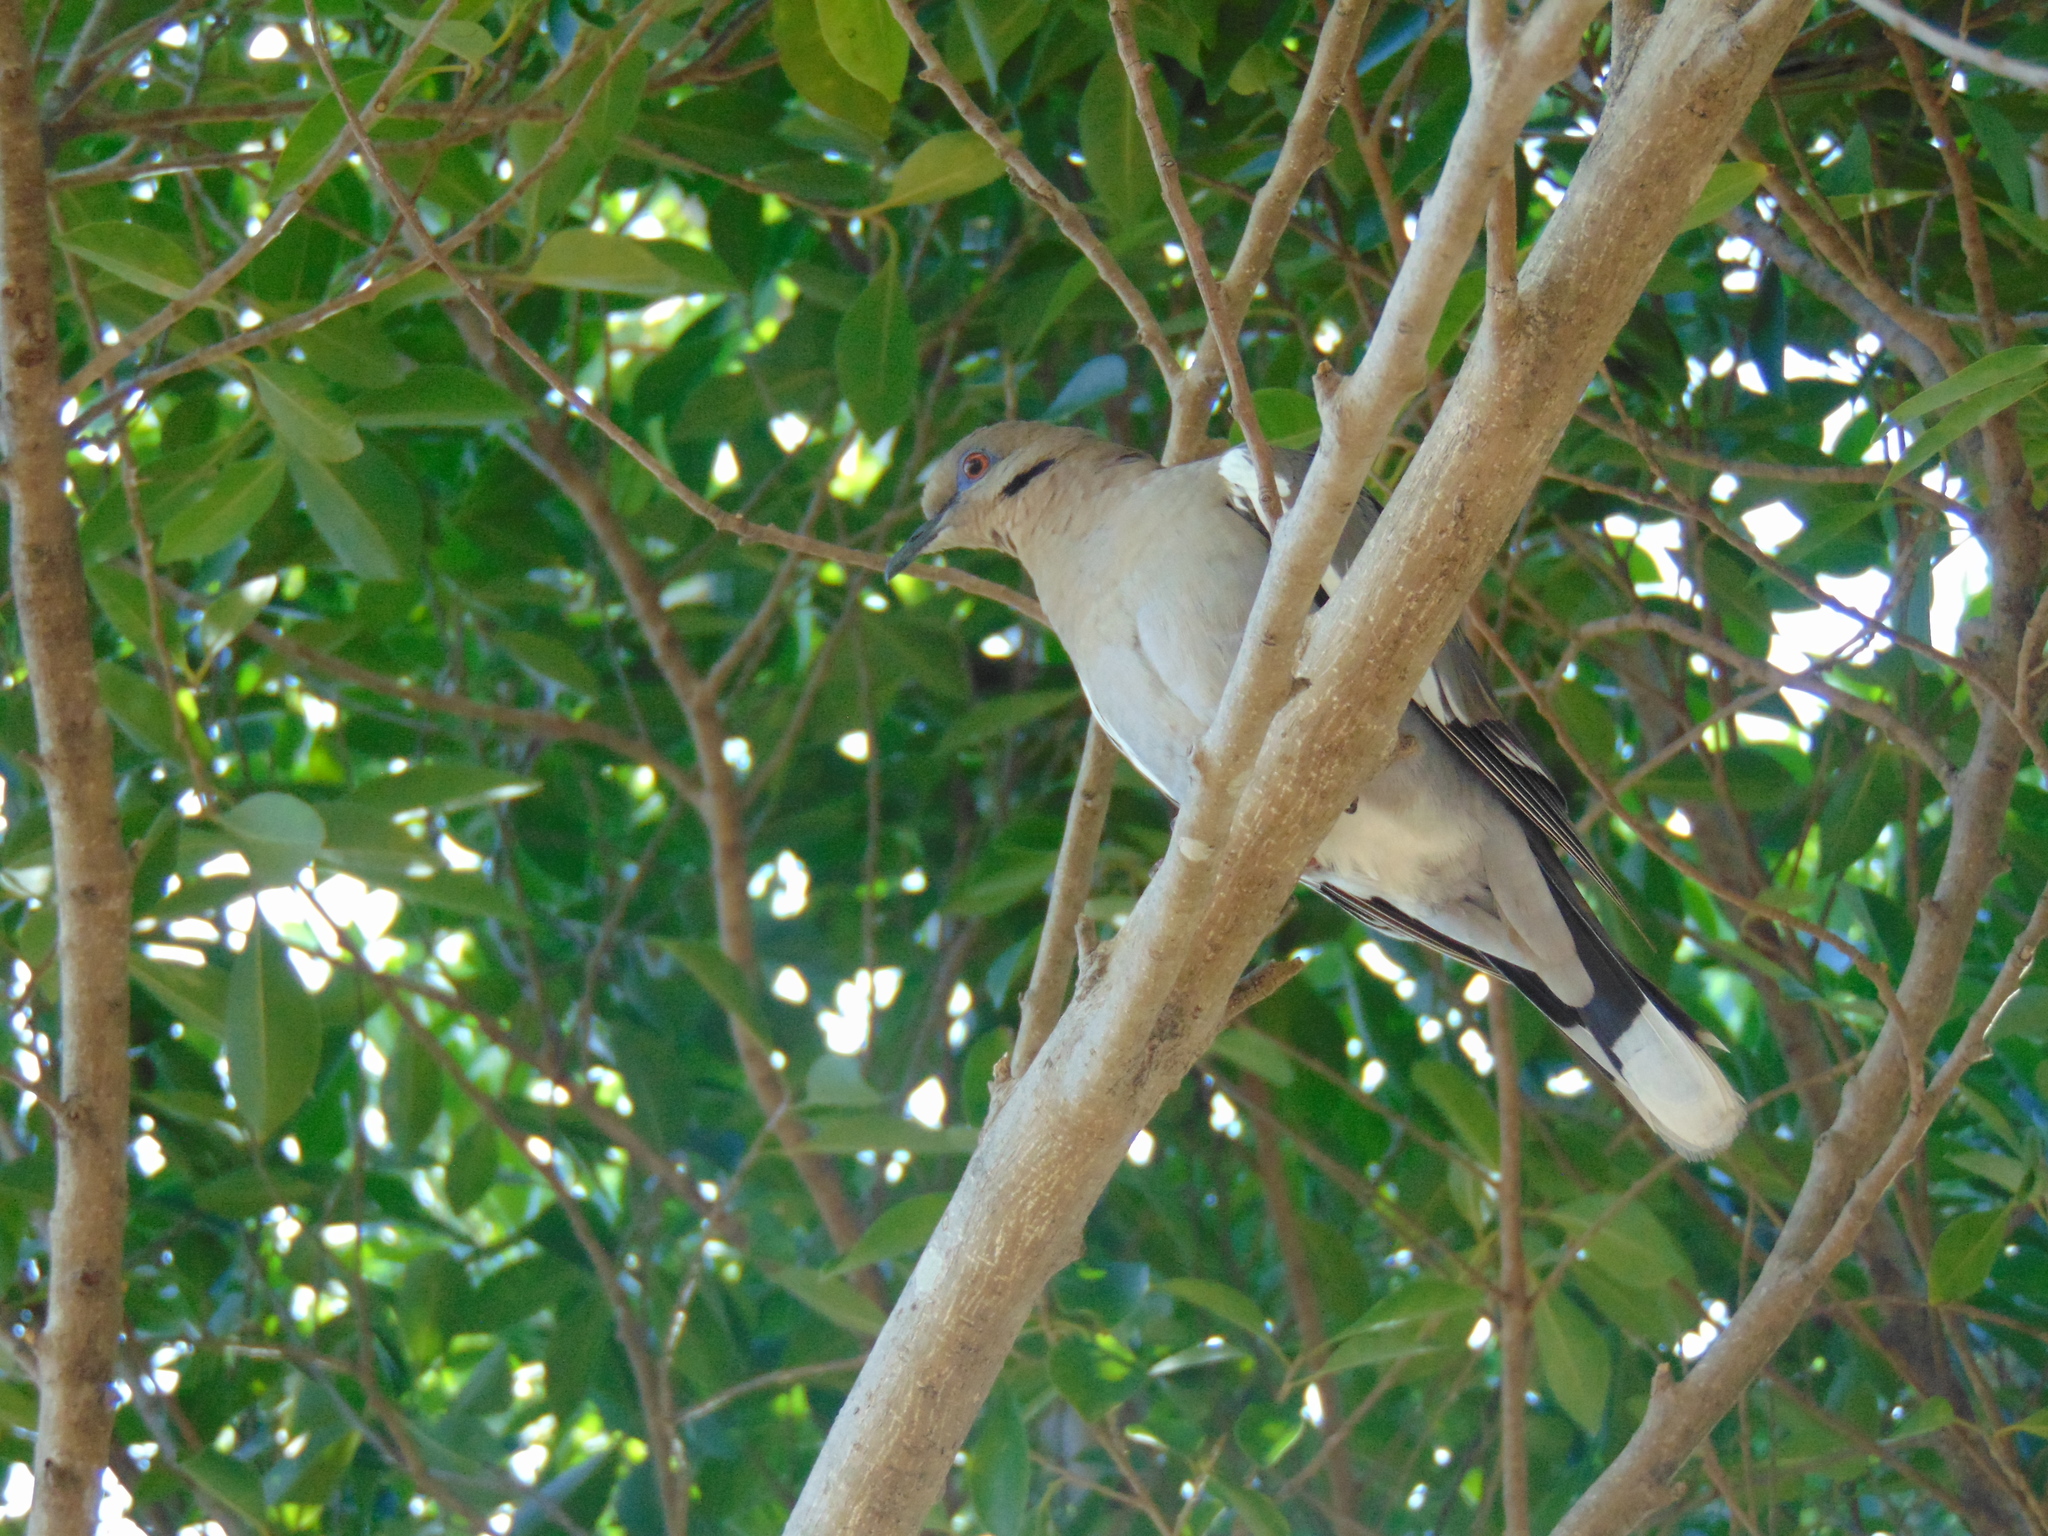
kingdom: Animalia
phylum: Chordata
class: Aves
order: Columbiformes
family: Columbidae
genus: Zenaida
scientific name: Zenaida asiatica
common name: White-winged dove
